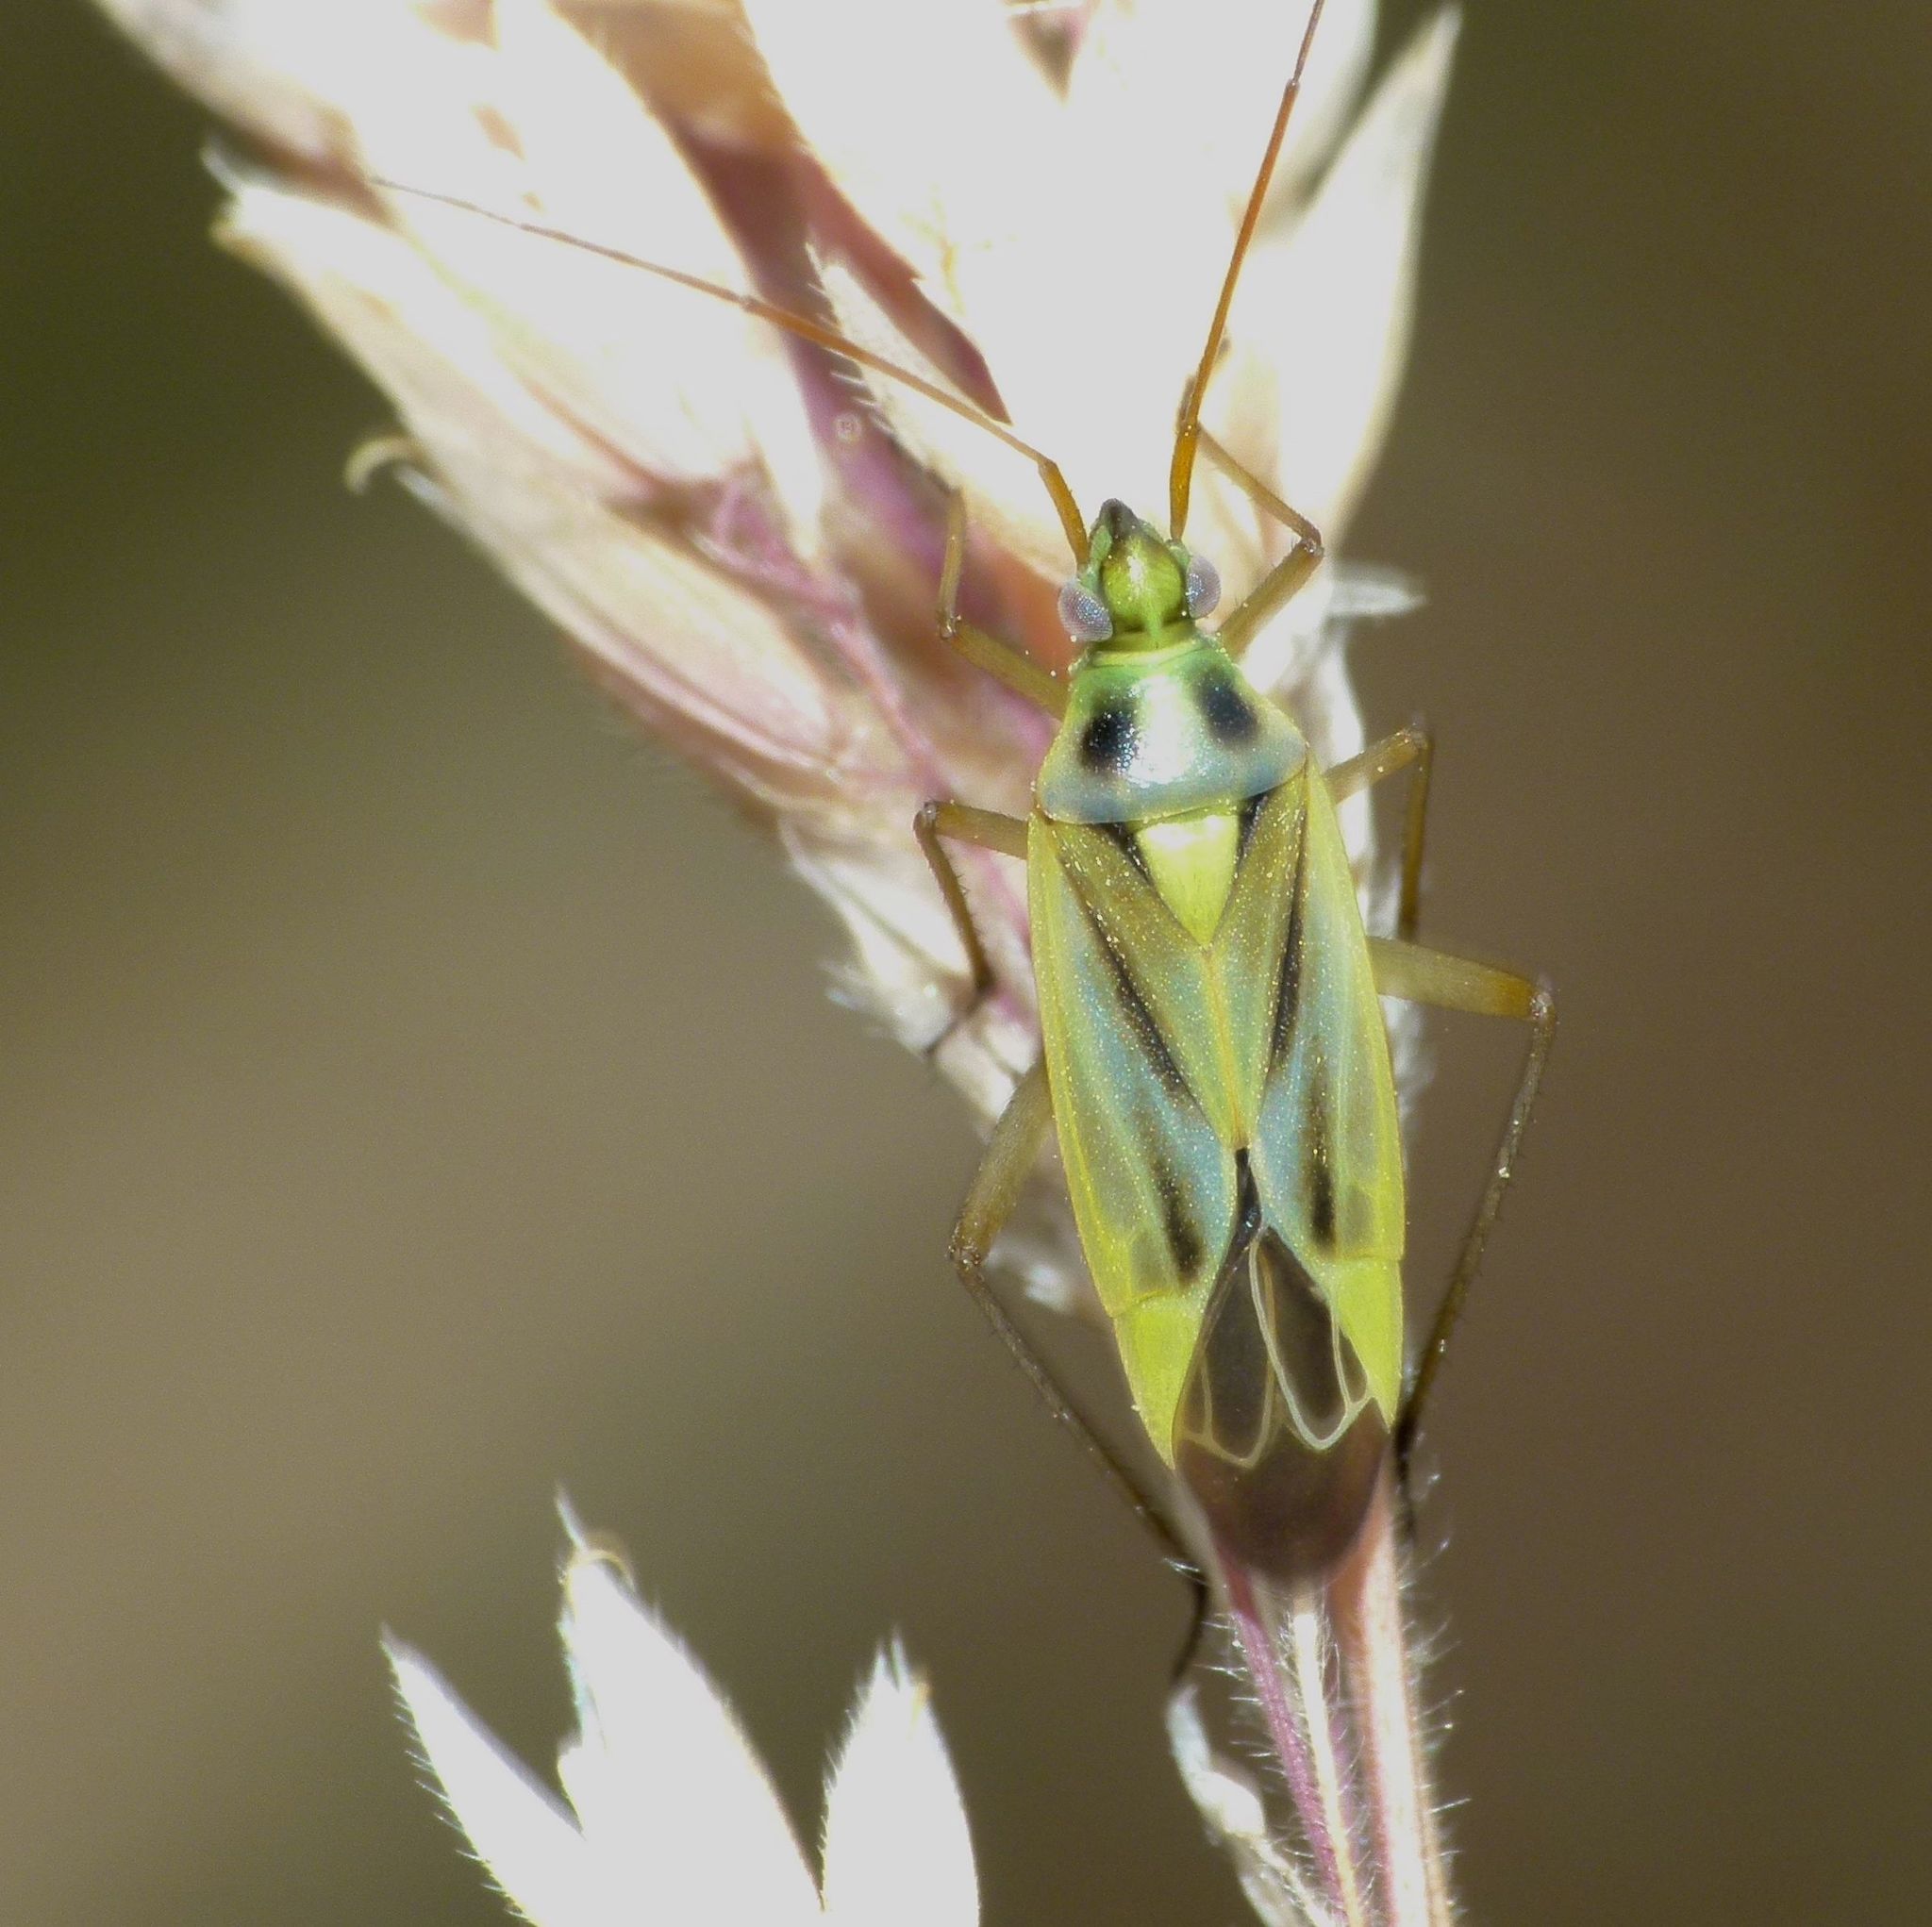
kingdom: Animalia
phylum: Arthropoda
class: Insecta
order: Hemiptera
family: Miridae
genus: Stenotus
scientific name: Stenotus binotatus
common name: Plant bug
